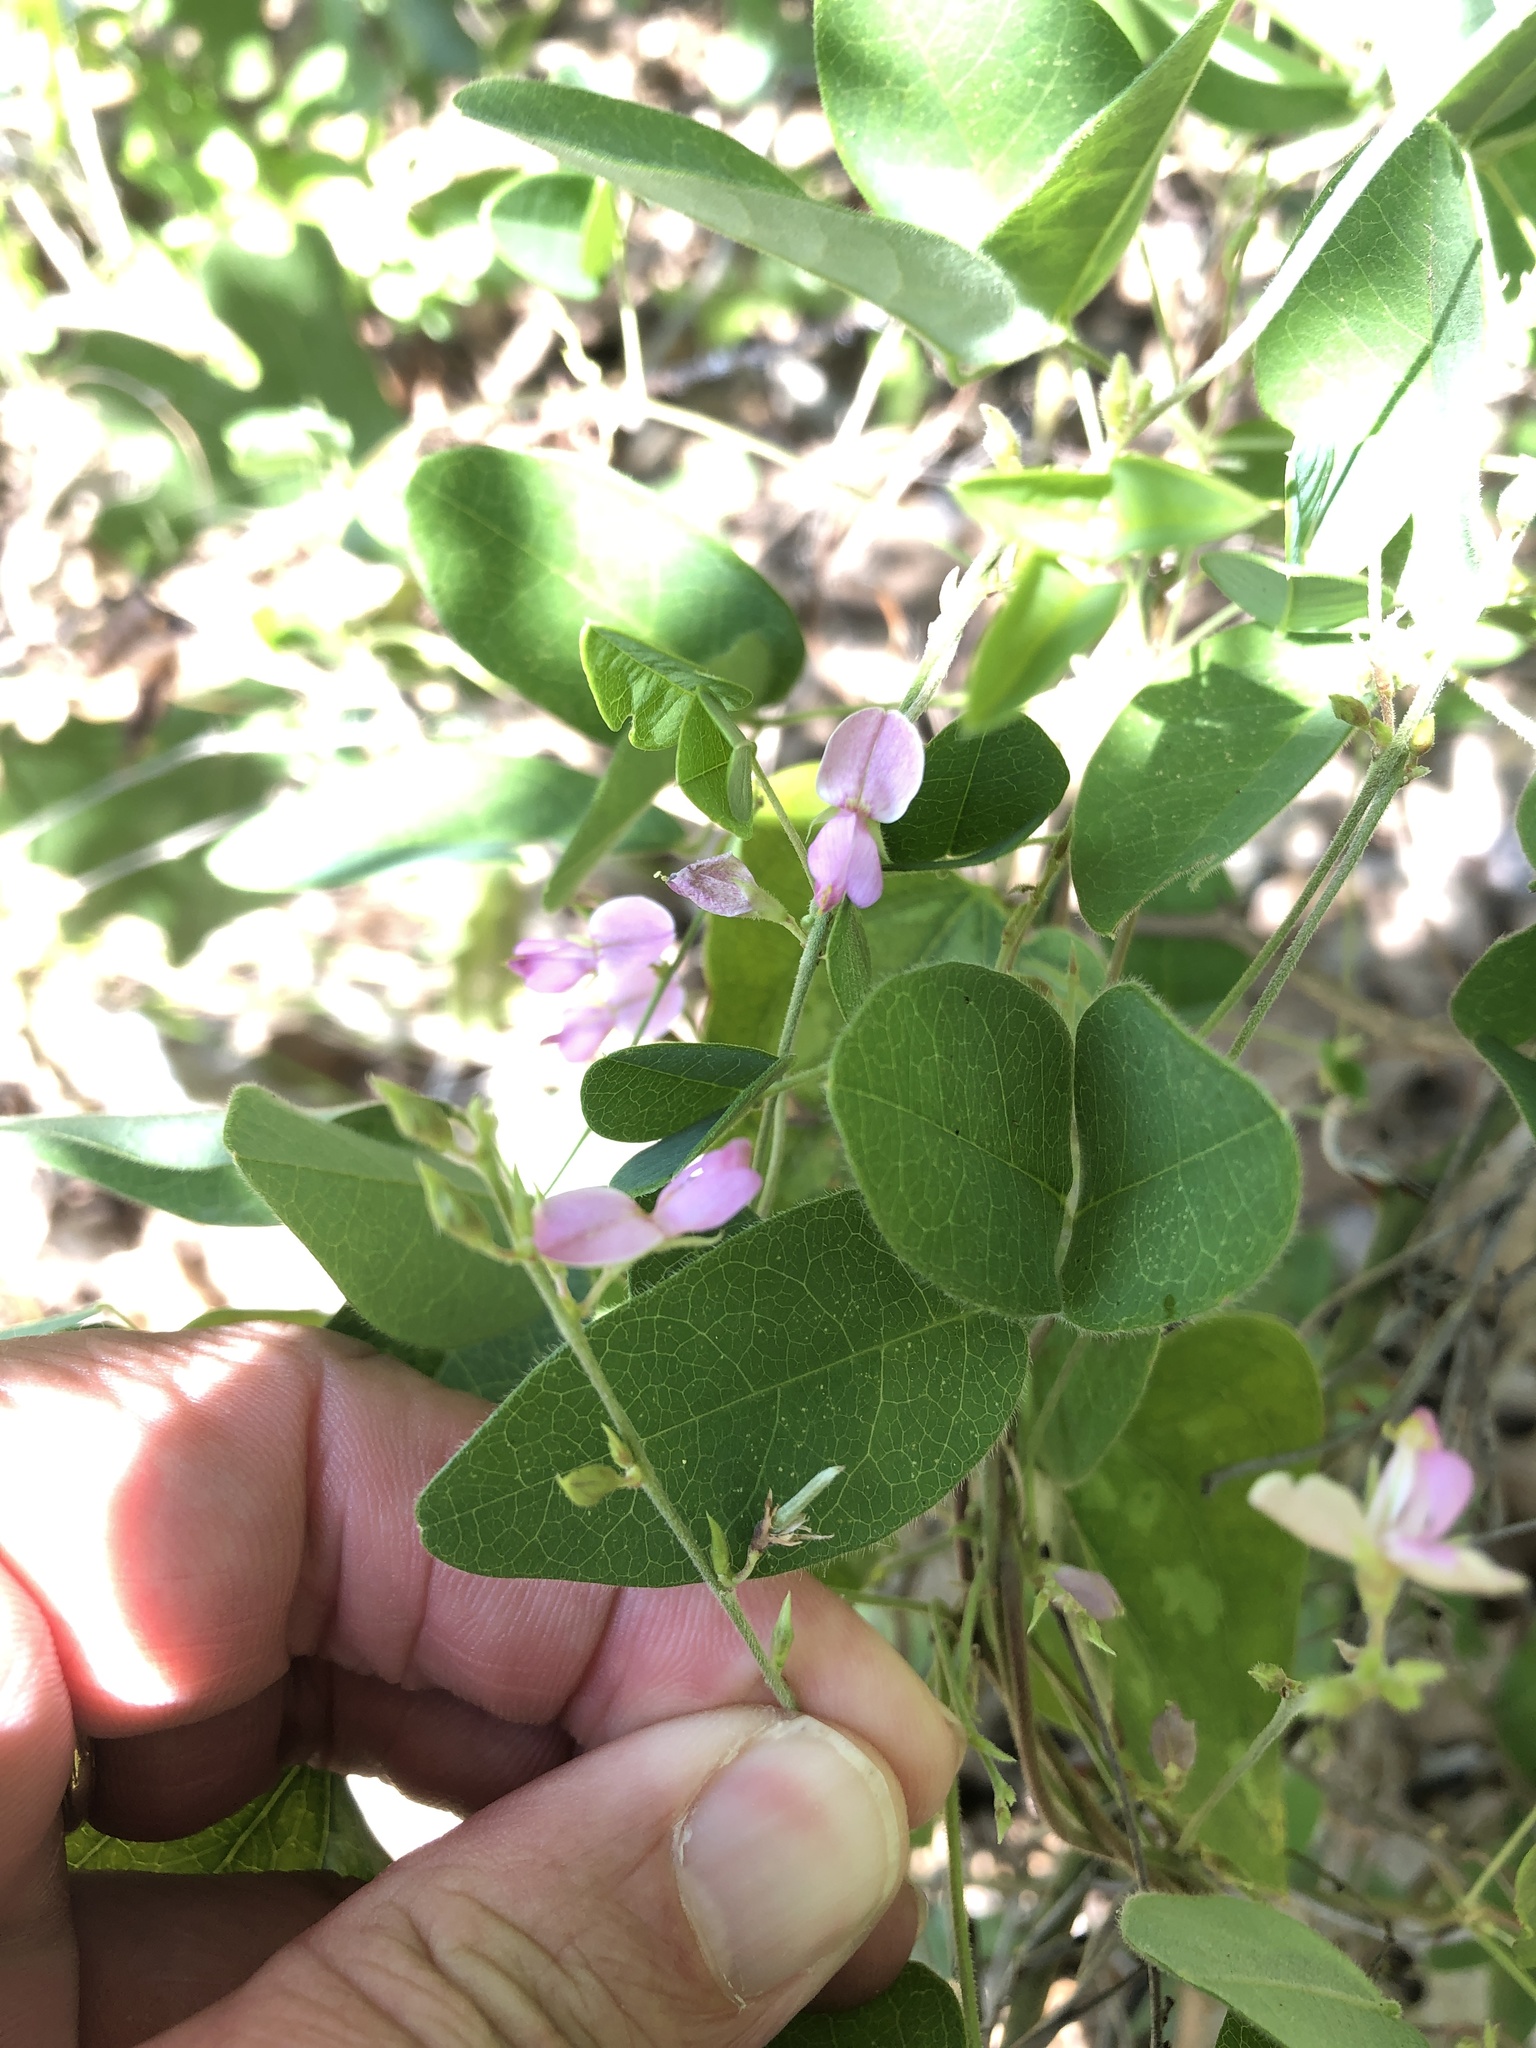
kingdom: Plantae
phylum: Tracheophyta
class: Magnoliopsida
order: Fabales
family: Fabaceae
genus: Galactia
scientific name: Galactia regularis
